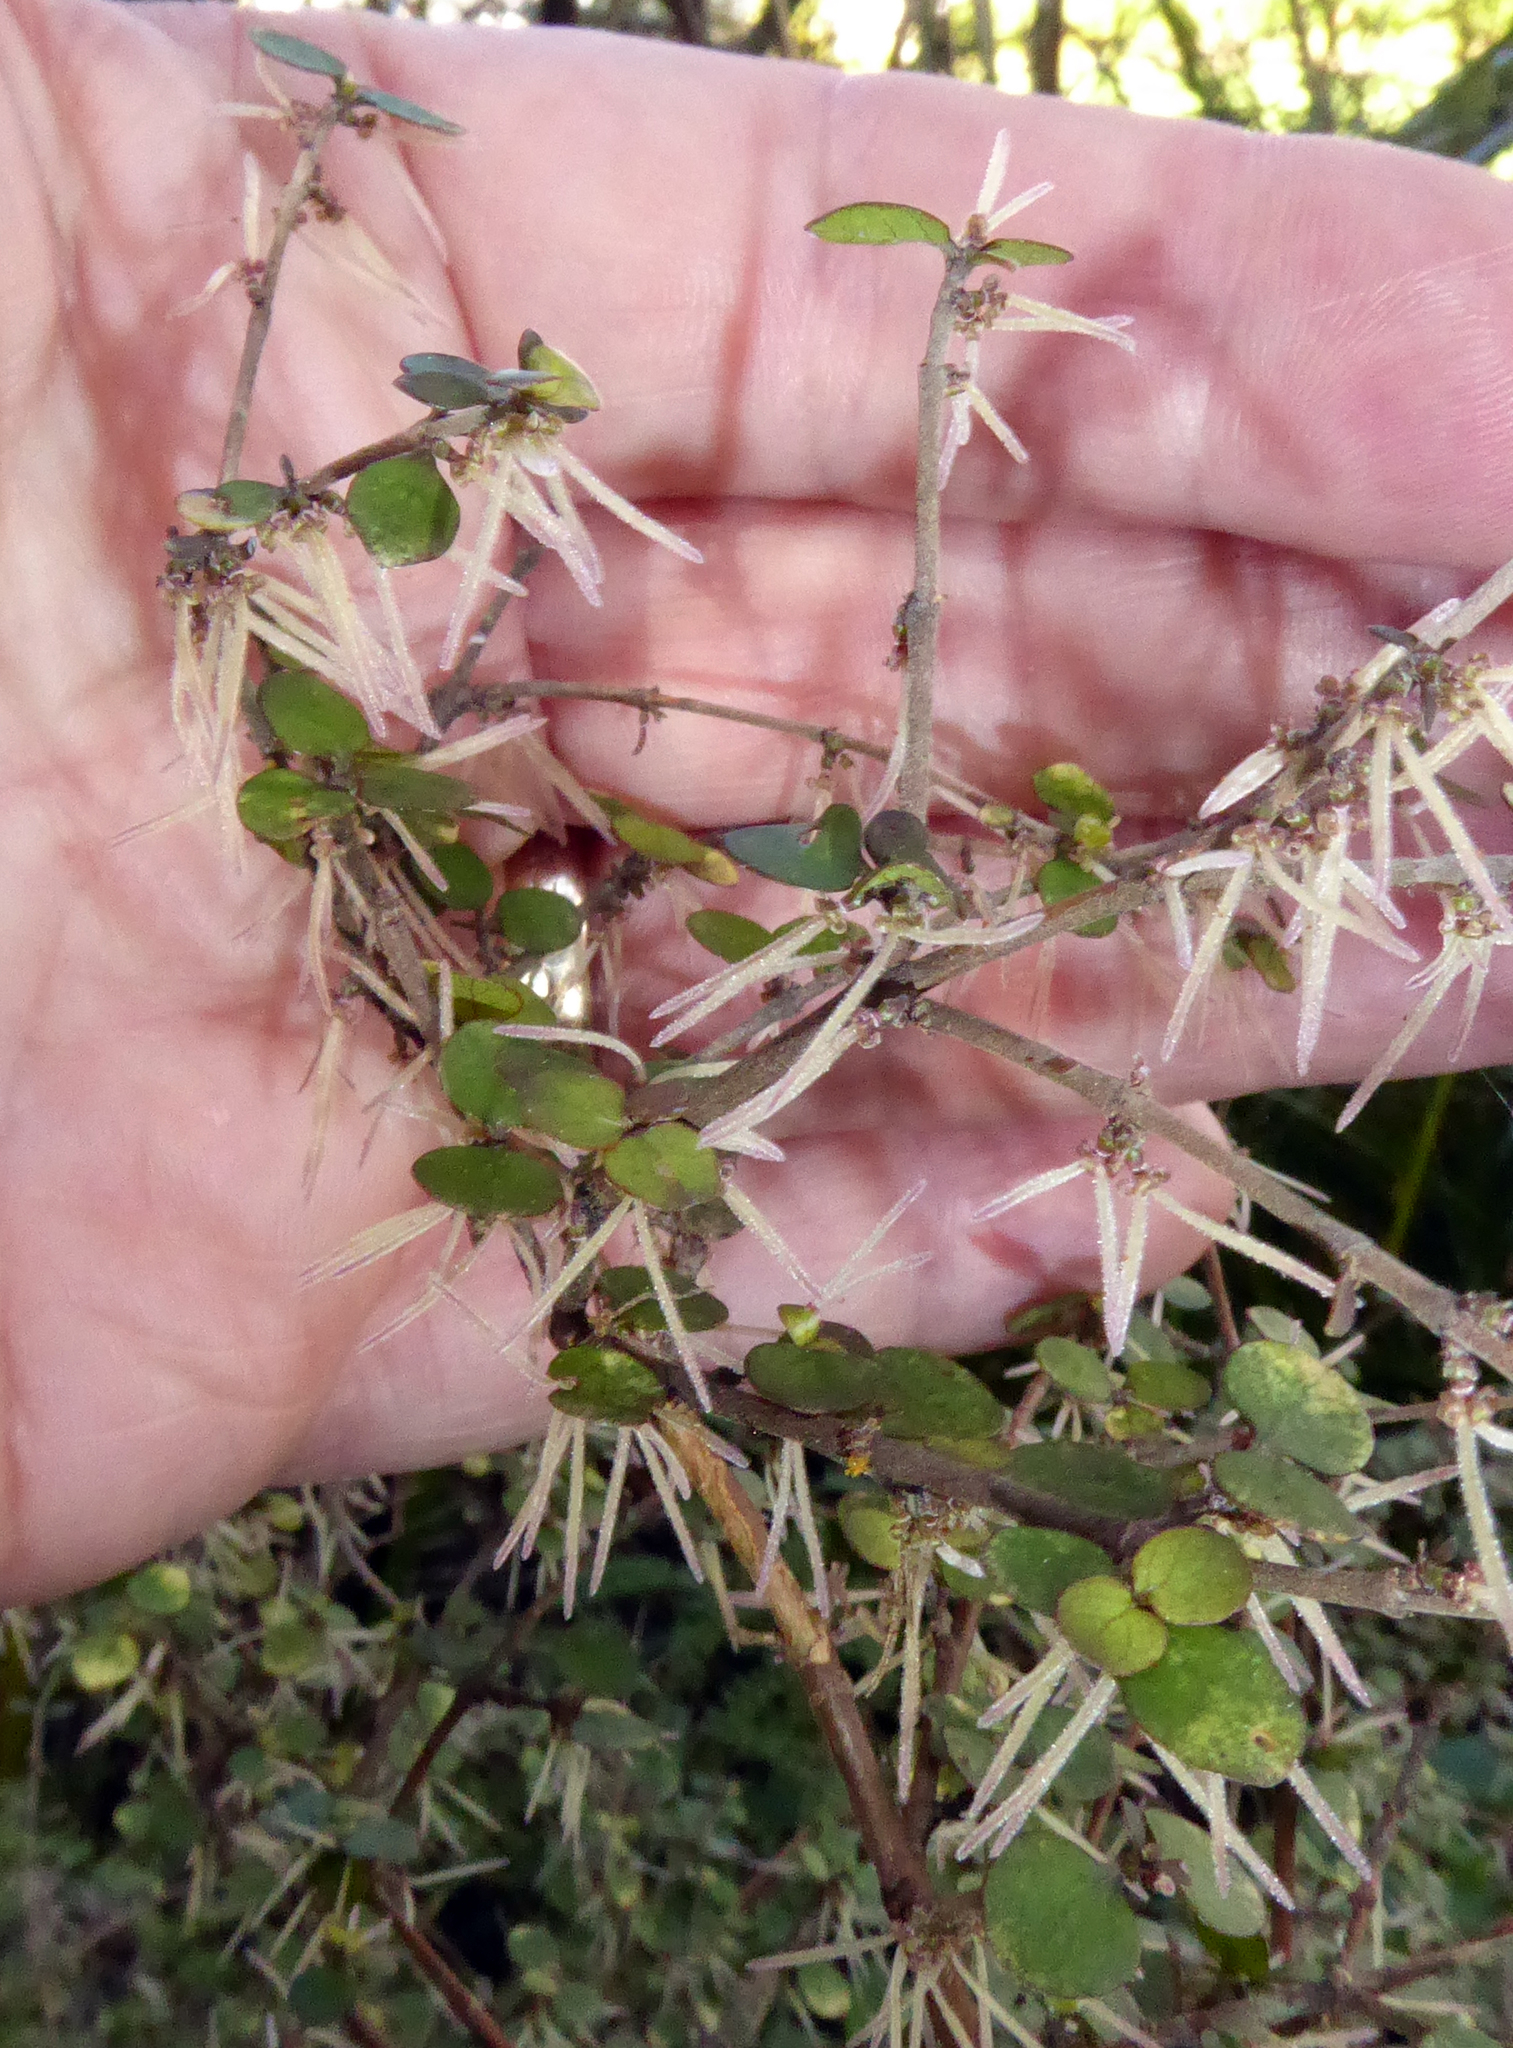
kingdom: Plantae
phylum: Tracheophyta
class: Magnoliopsida
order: Gentianales
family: Rubiaceae
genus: Coprosma
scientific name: Coprosma rhamnoides
